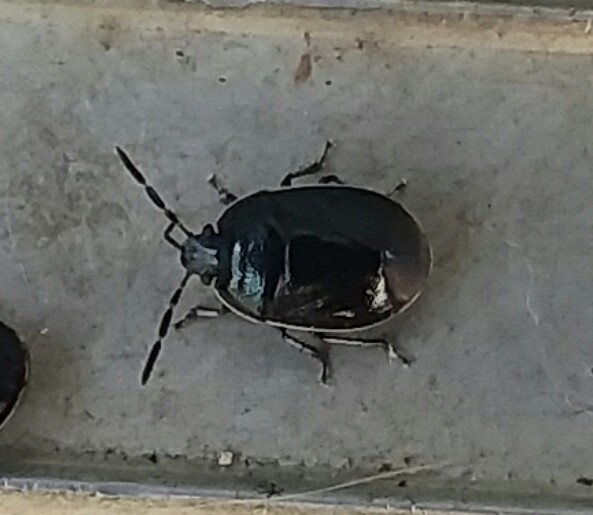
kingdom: Animalia
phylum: Arthropoda
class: Insecta
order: Hemiptera
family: Cydnidae
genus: Sehirus
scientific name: Sehirus cinctus
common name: White-margined burrower bug
